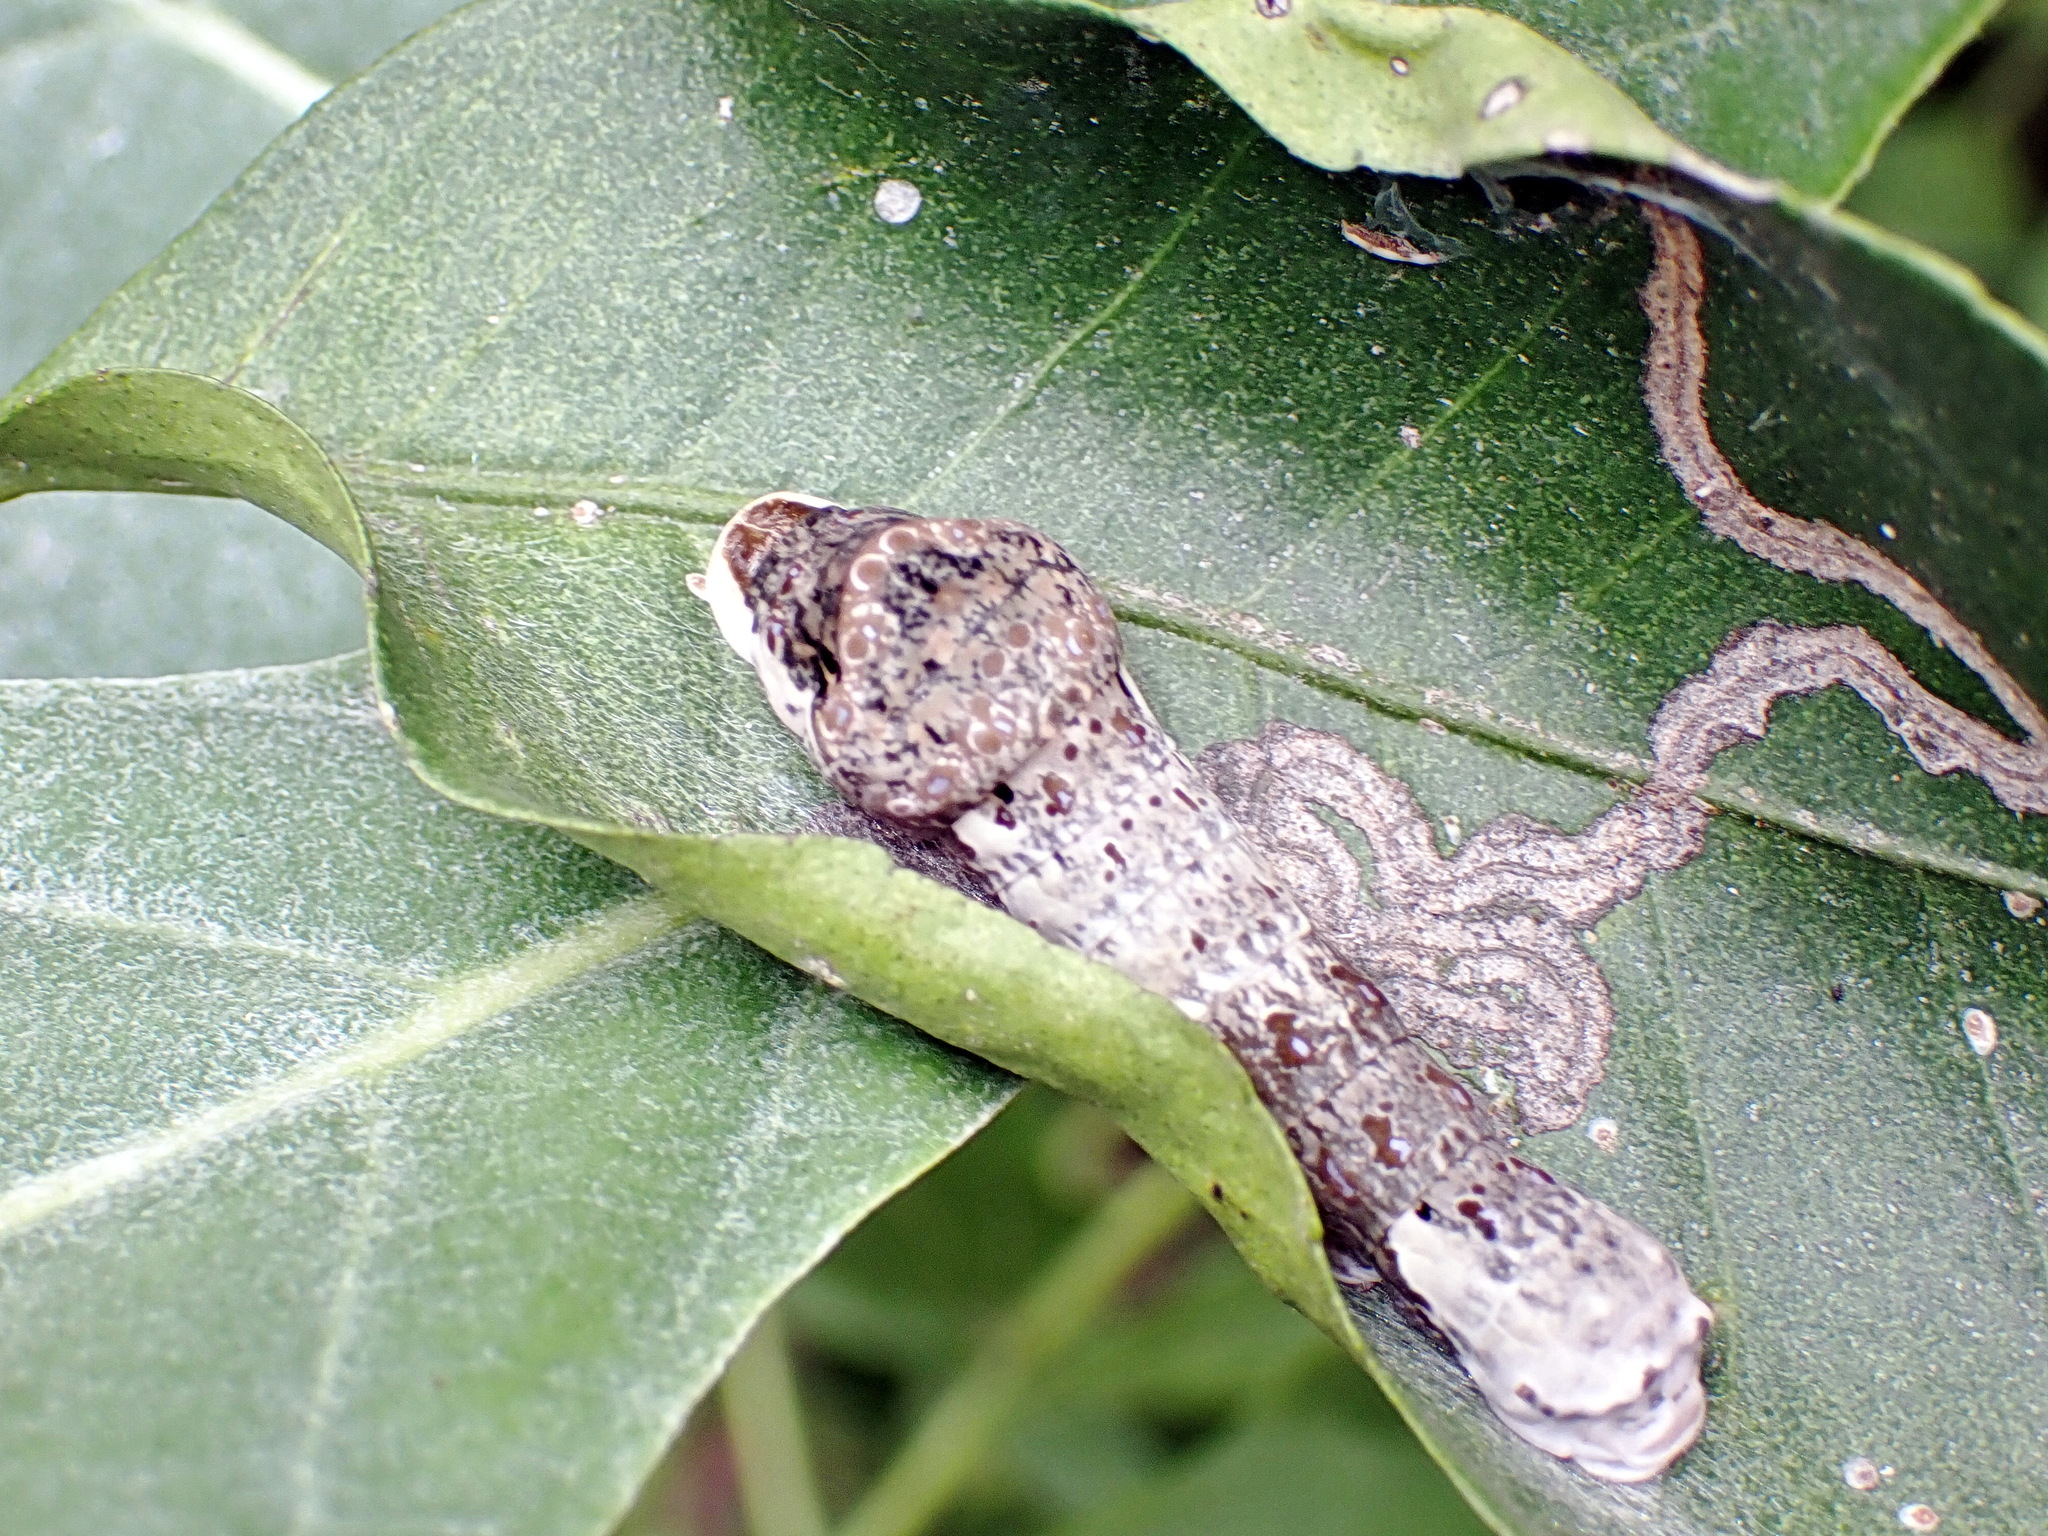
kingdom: Animalia
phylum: Arthropoda
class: Insecta
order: Lepidoptera
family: Papilionidae
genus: Papilio
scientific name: Papilio rumiko
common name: Western giant swallowtail
